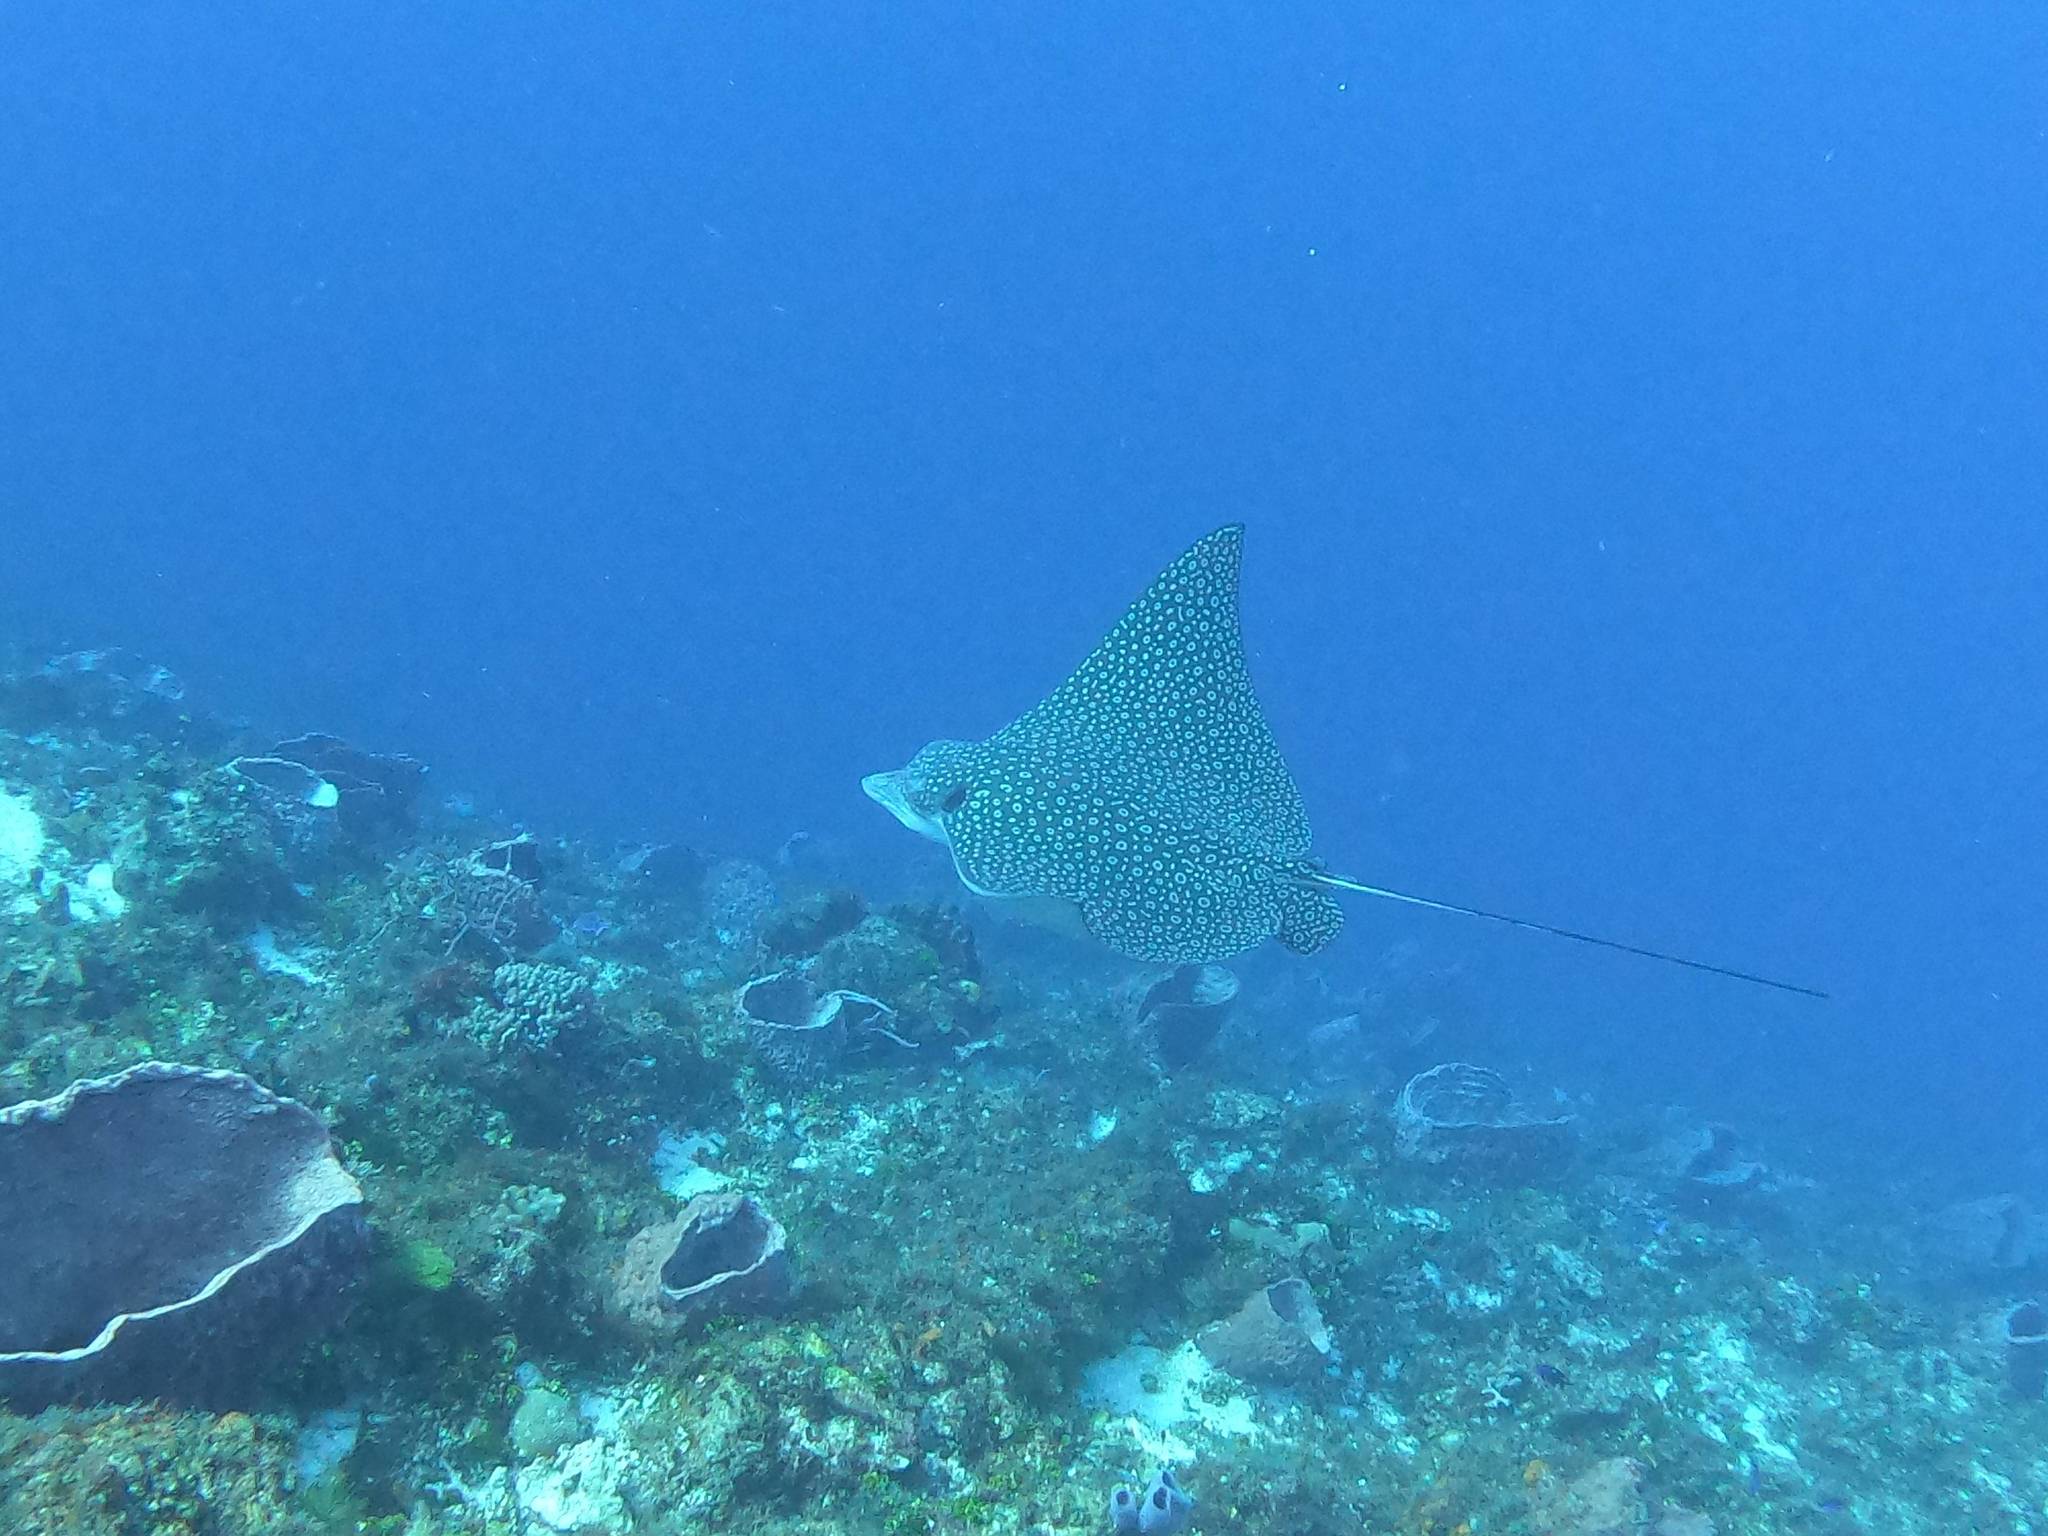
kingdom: Animalia
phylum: Chordata
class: Elasmobranchii
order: Myliobatiformes
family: Myliobatidae
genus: Aetobatus
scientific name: Aetobatus narinari
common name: Spotted eagle ray
